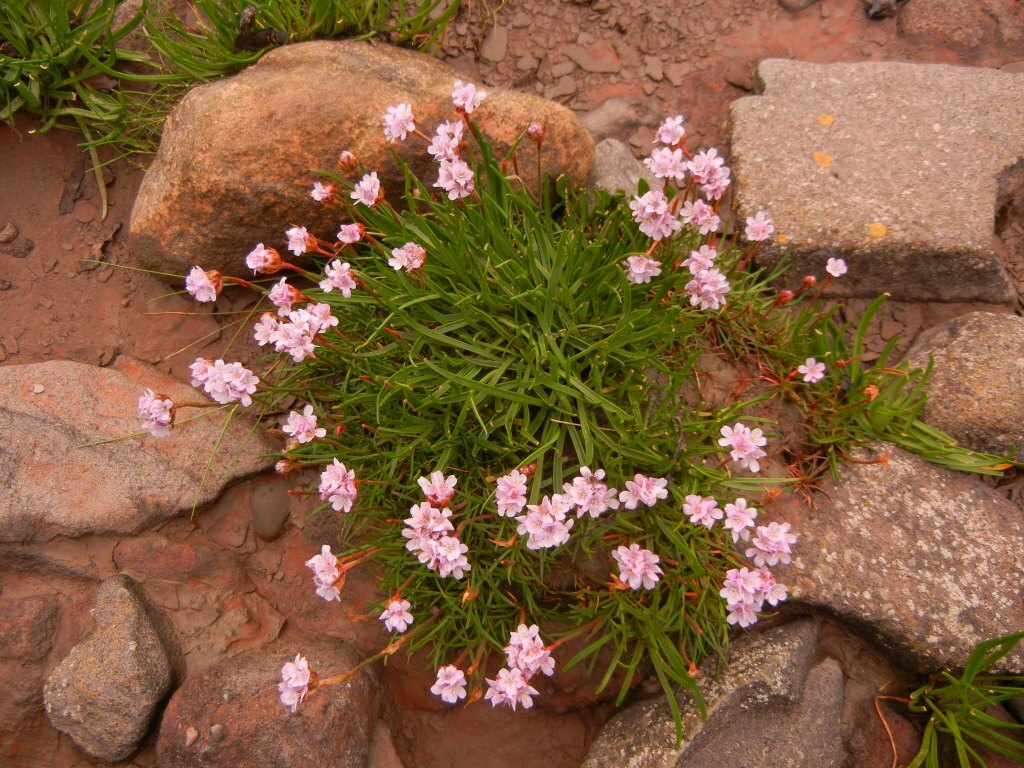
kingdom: Plantae
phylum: Tracheophyta
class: Magnoliopsida
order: Caryophyllales
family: Plumbaginaceae
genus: Armeria
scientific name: Armeria maritima
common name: Thrift
